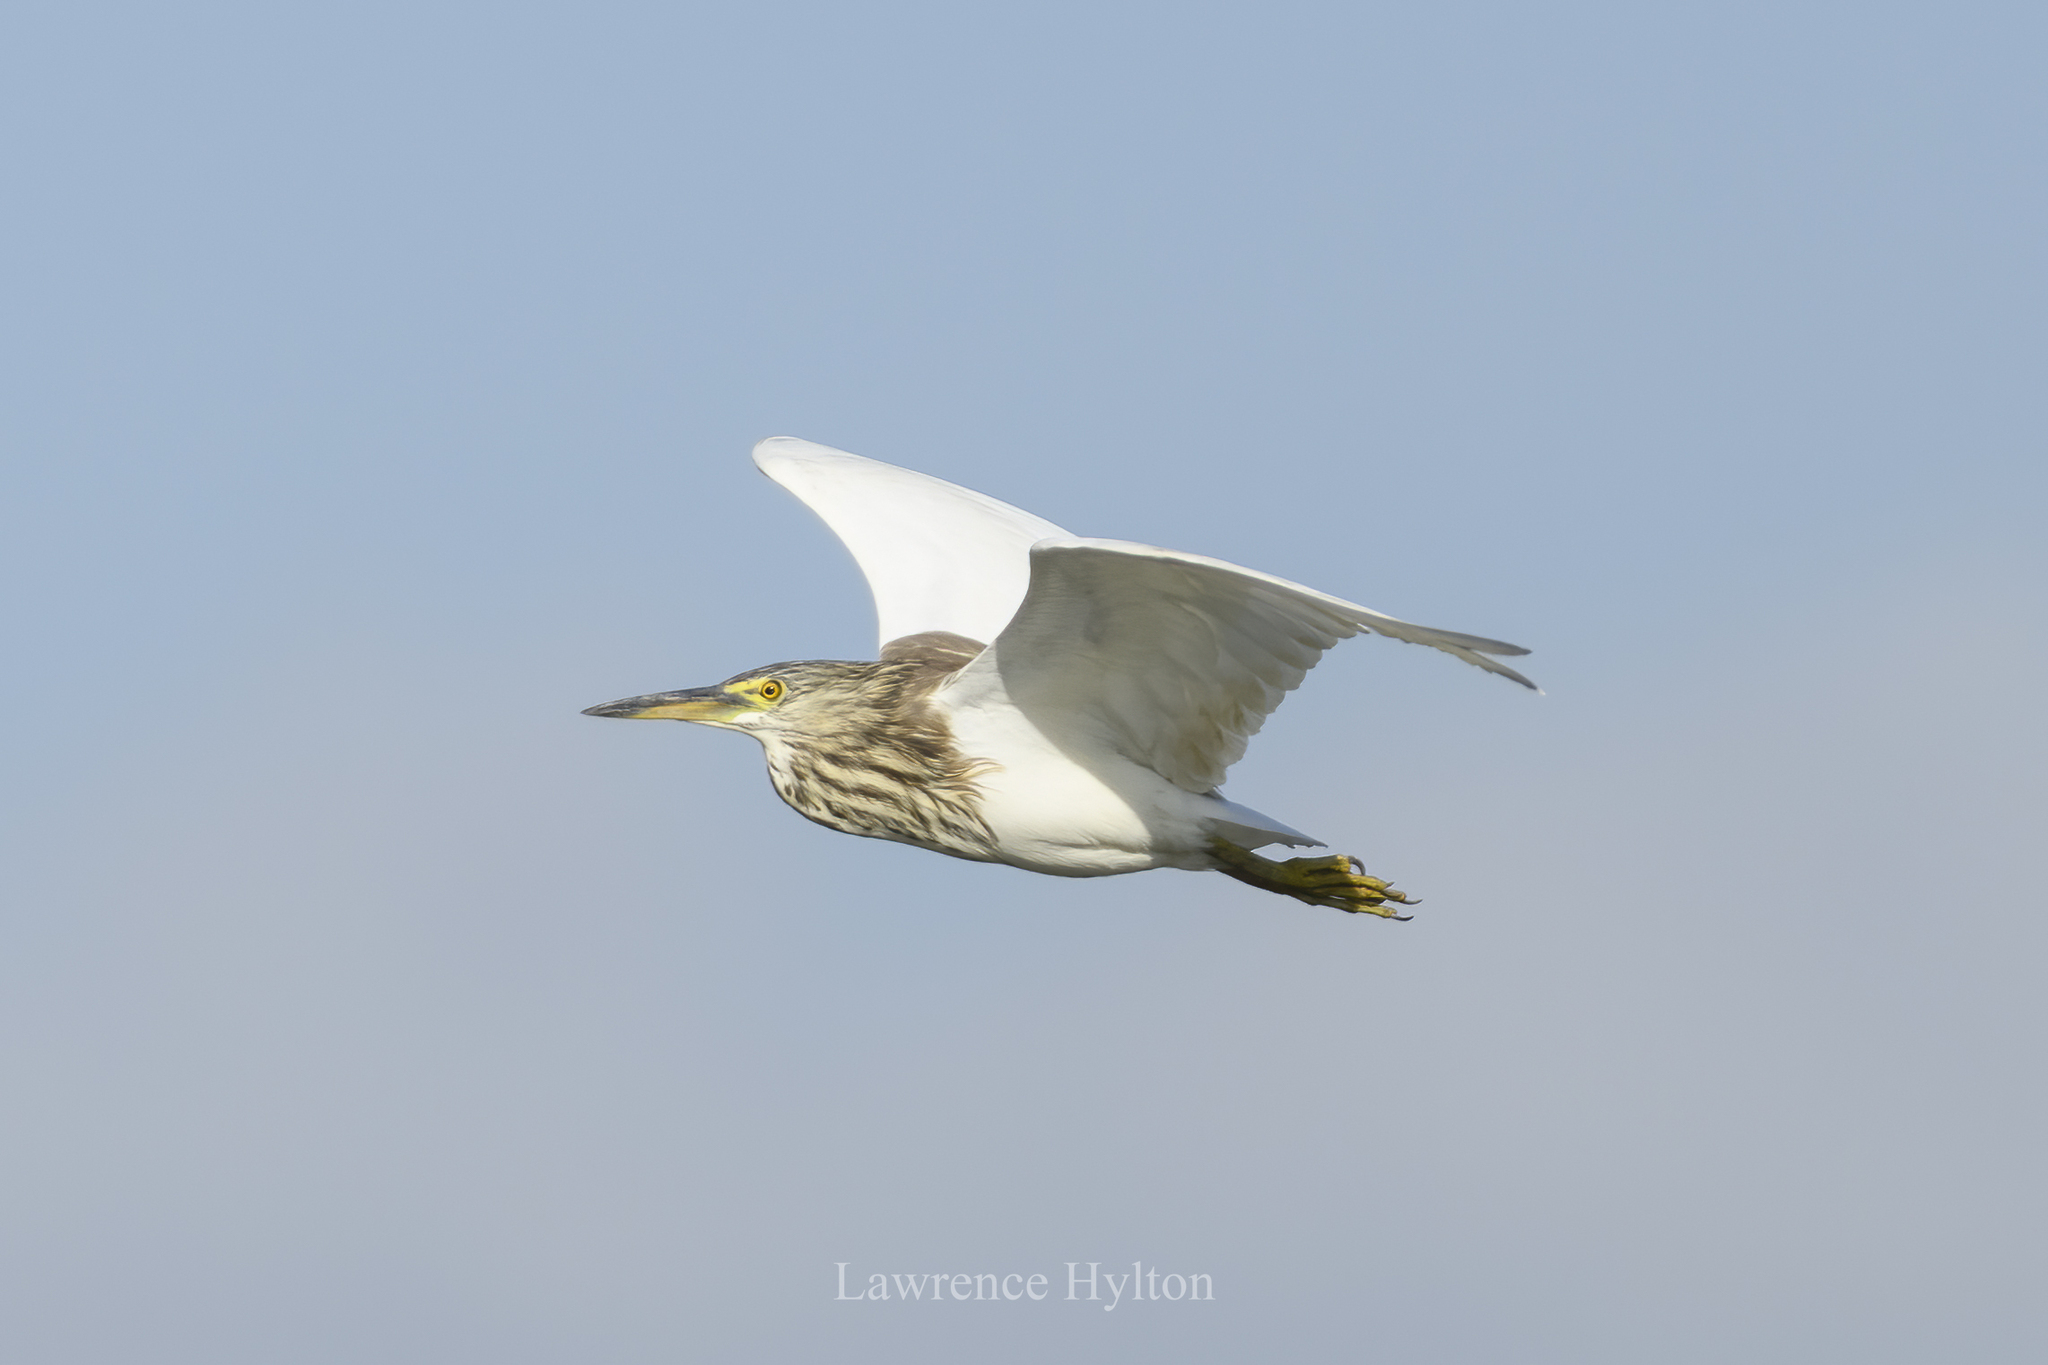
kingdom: Animalia
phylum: Chordata
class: Aves
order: Pelecaniformes
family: Ardeidae
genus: Ardeola
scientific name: Ardeola bacchus
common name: Chinese pond heron
